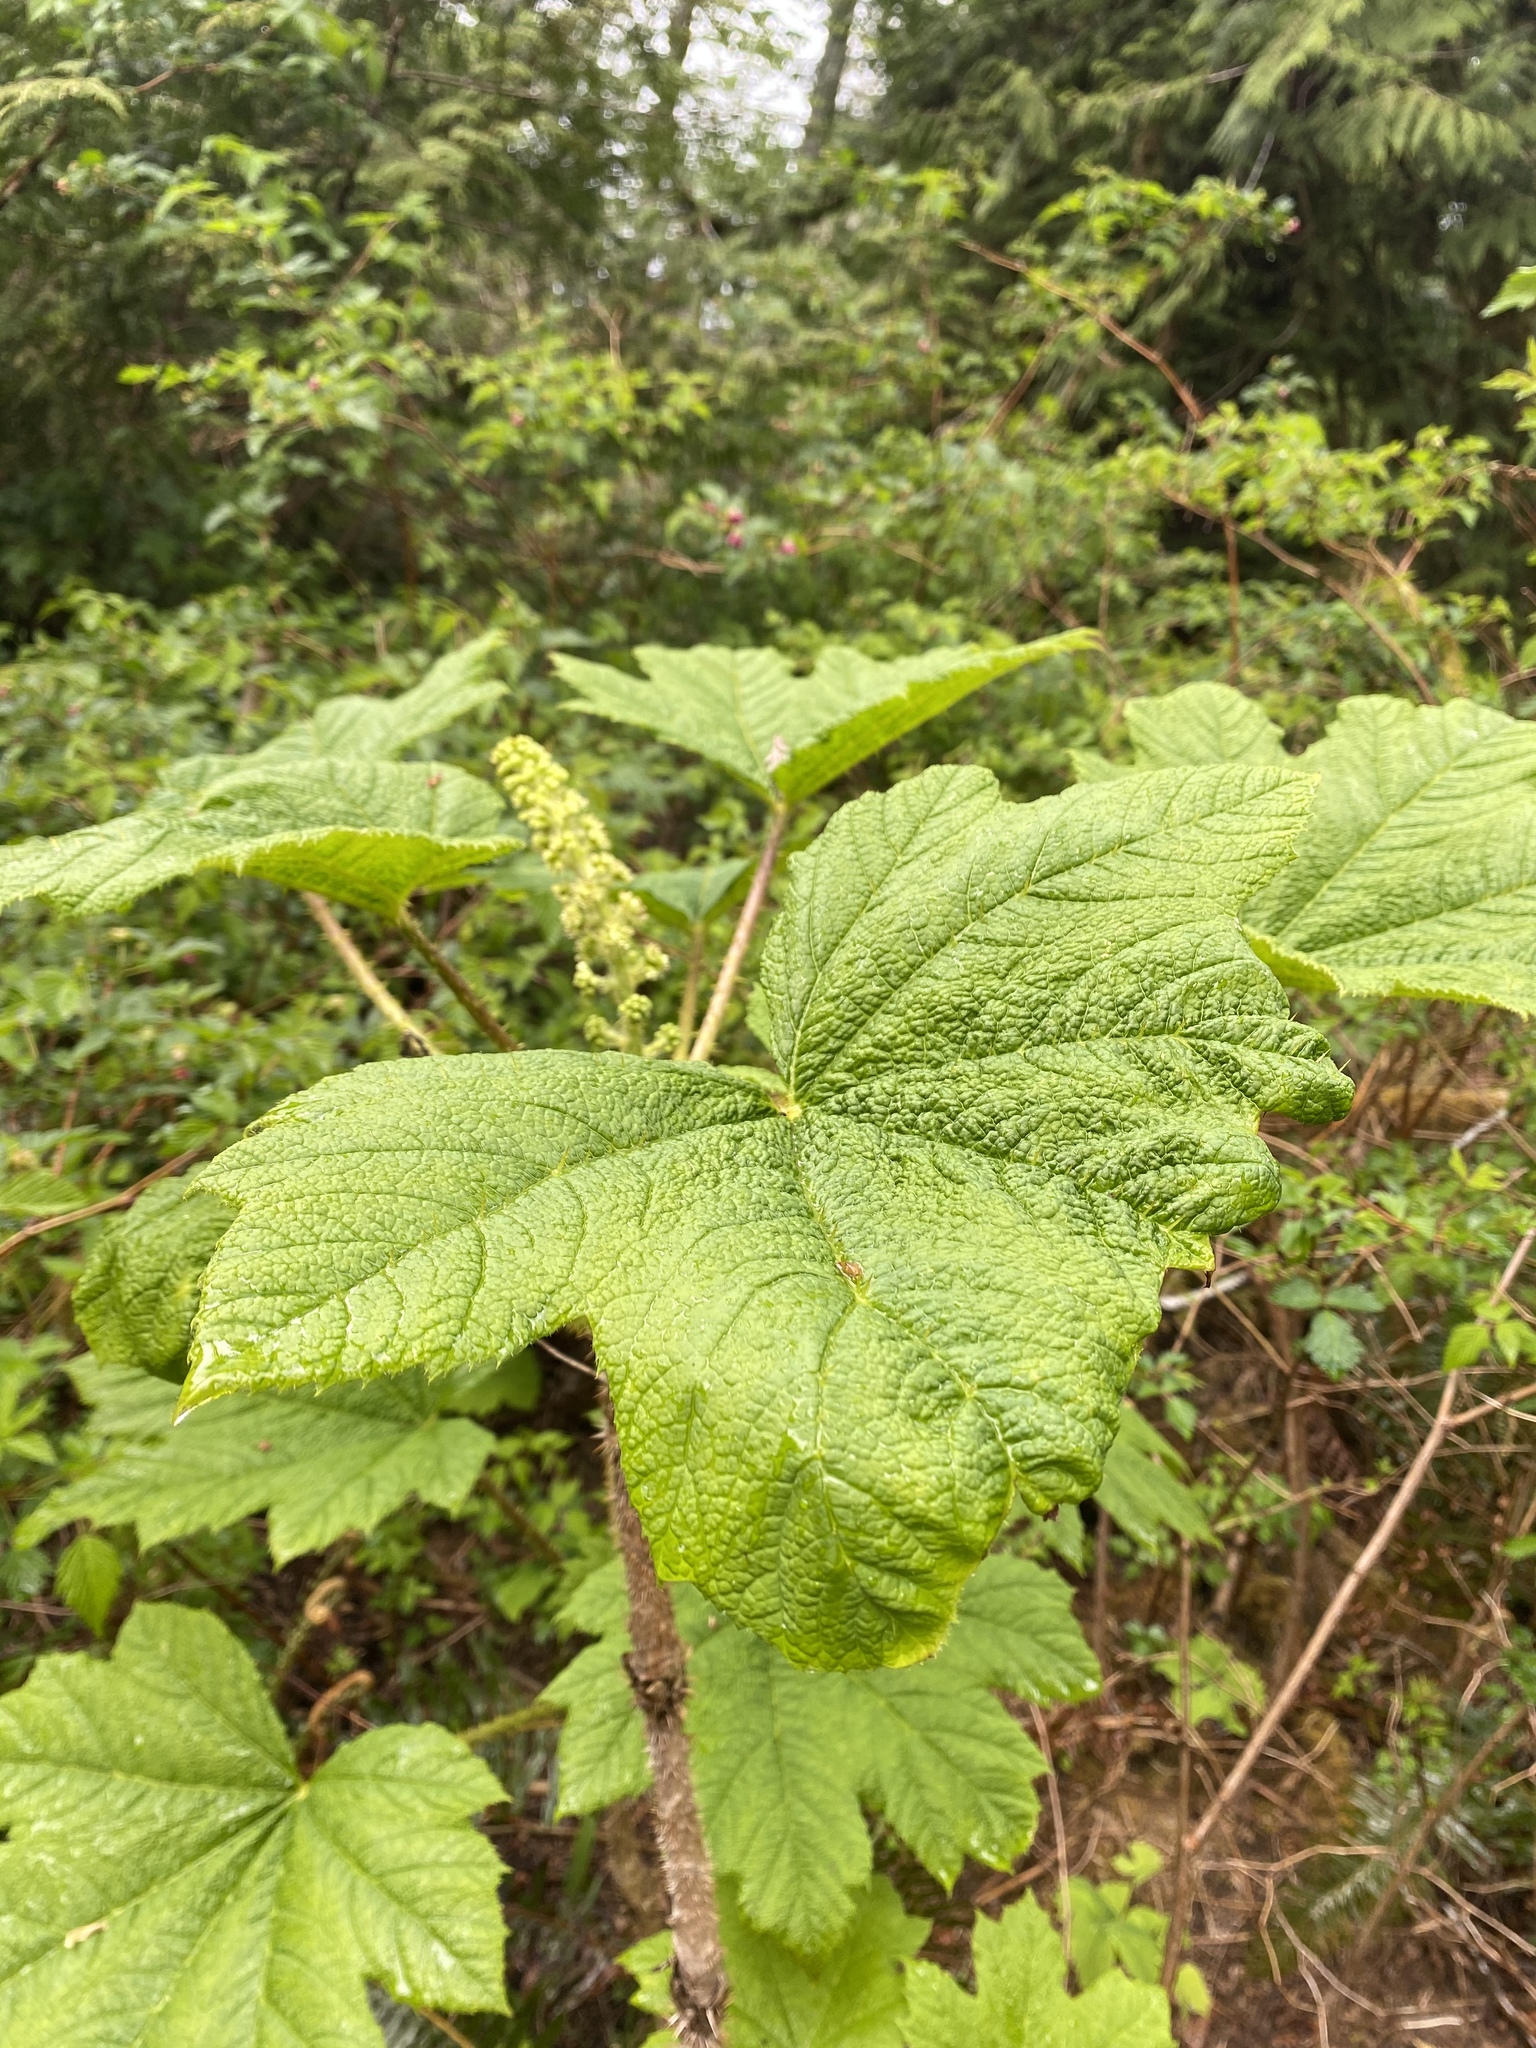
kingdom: Plantae
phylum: Tracheophyta
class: Magnoliopsida
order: Apiales
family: Araliaceae
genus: Oplopanax
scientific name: Oplopanax horridus
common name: Devil's walking-stick
